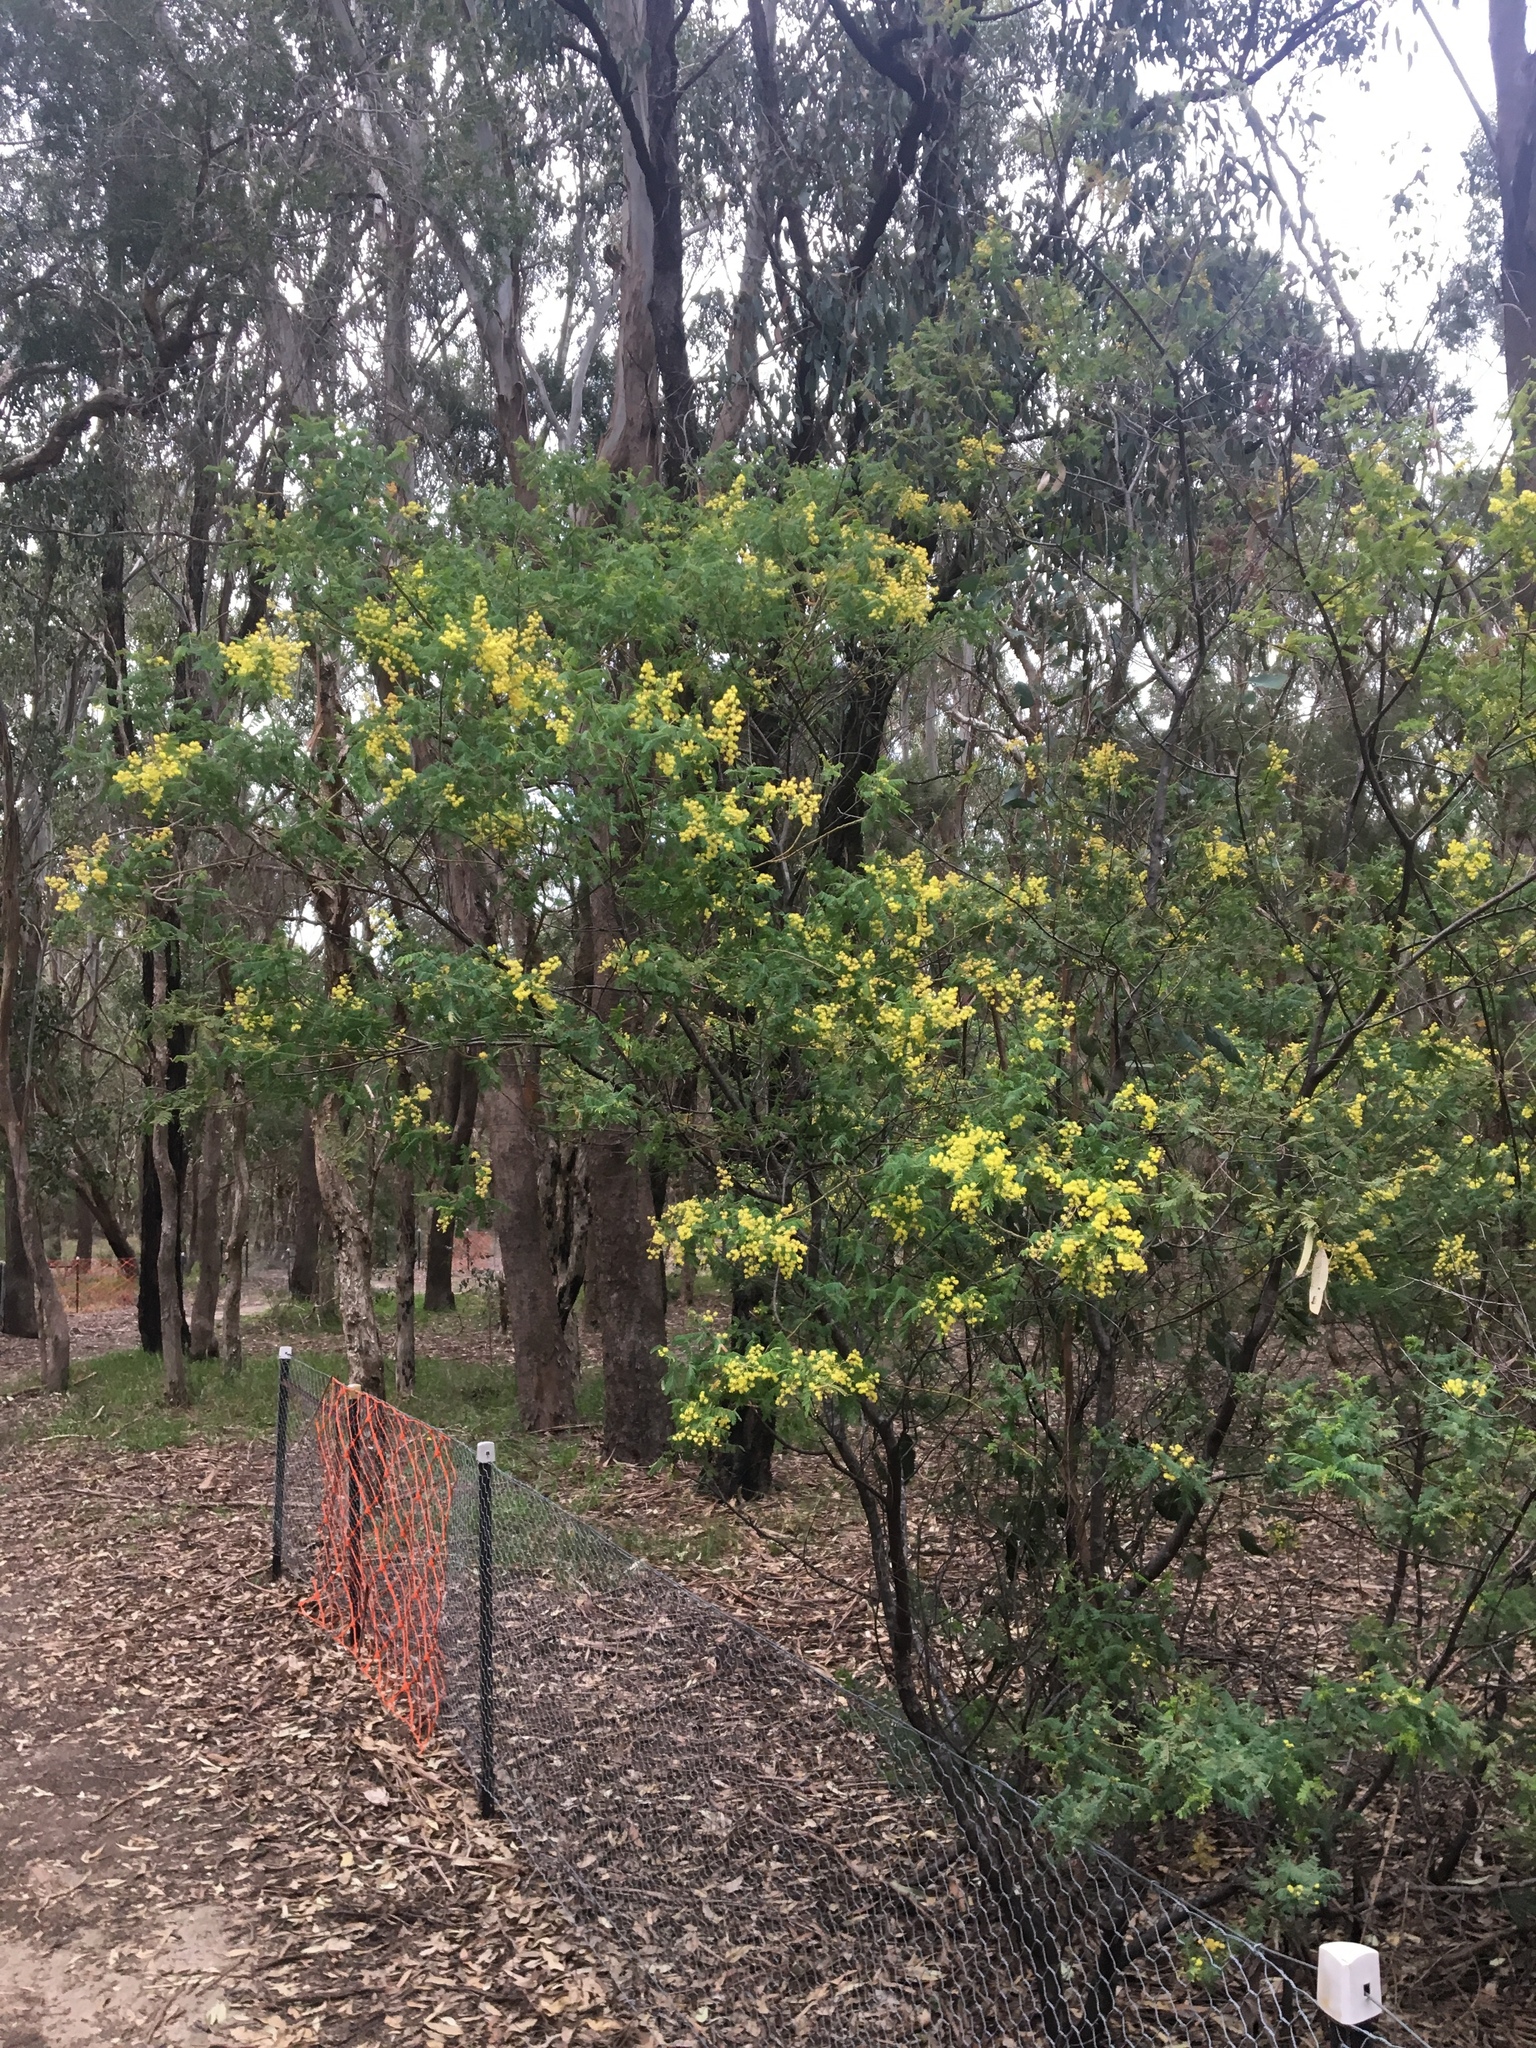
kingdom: Plantae
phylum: Tracheophyta
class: Magnoliopsida
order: Fabales
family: Fabaceae
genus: Acacia
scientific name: Acacia pubescens
